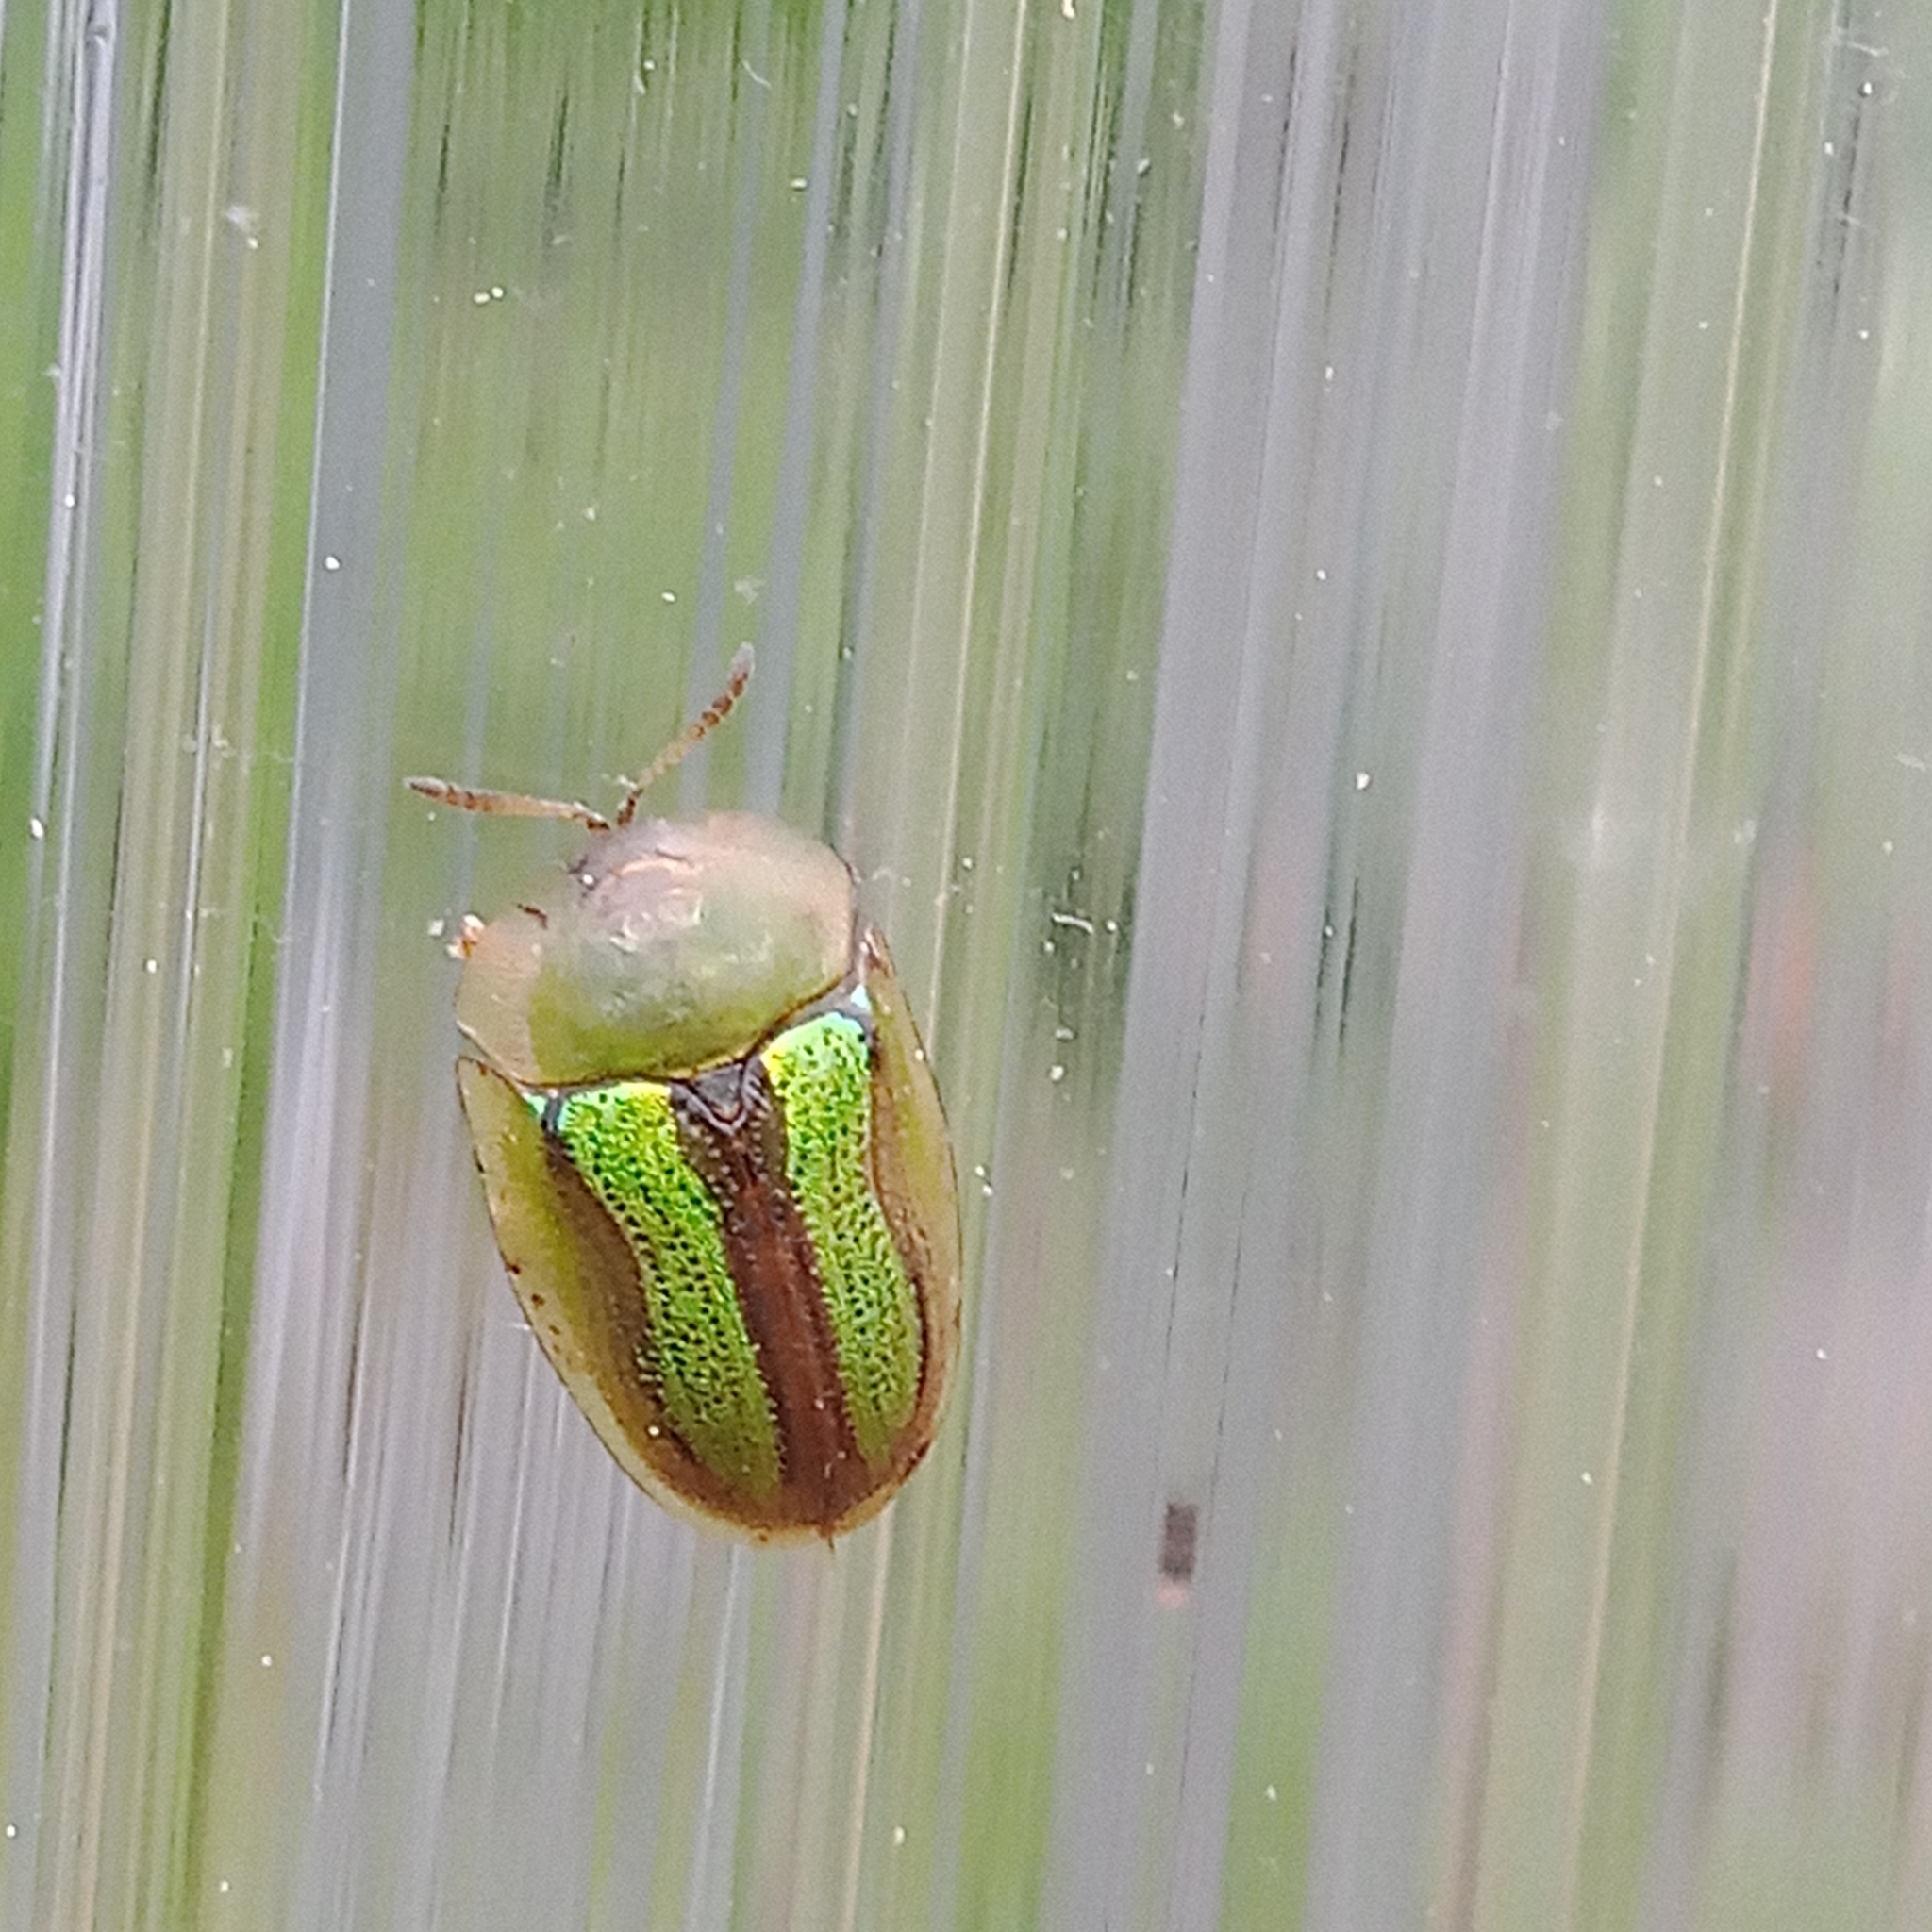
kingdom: Animalia
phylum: Arthropoda
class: Insecta
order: Coleoptera
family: Chrysomelidae
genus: Cassida
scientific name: Cassida vittata
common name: Bordered tortoise beetle
